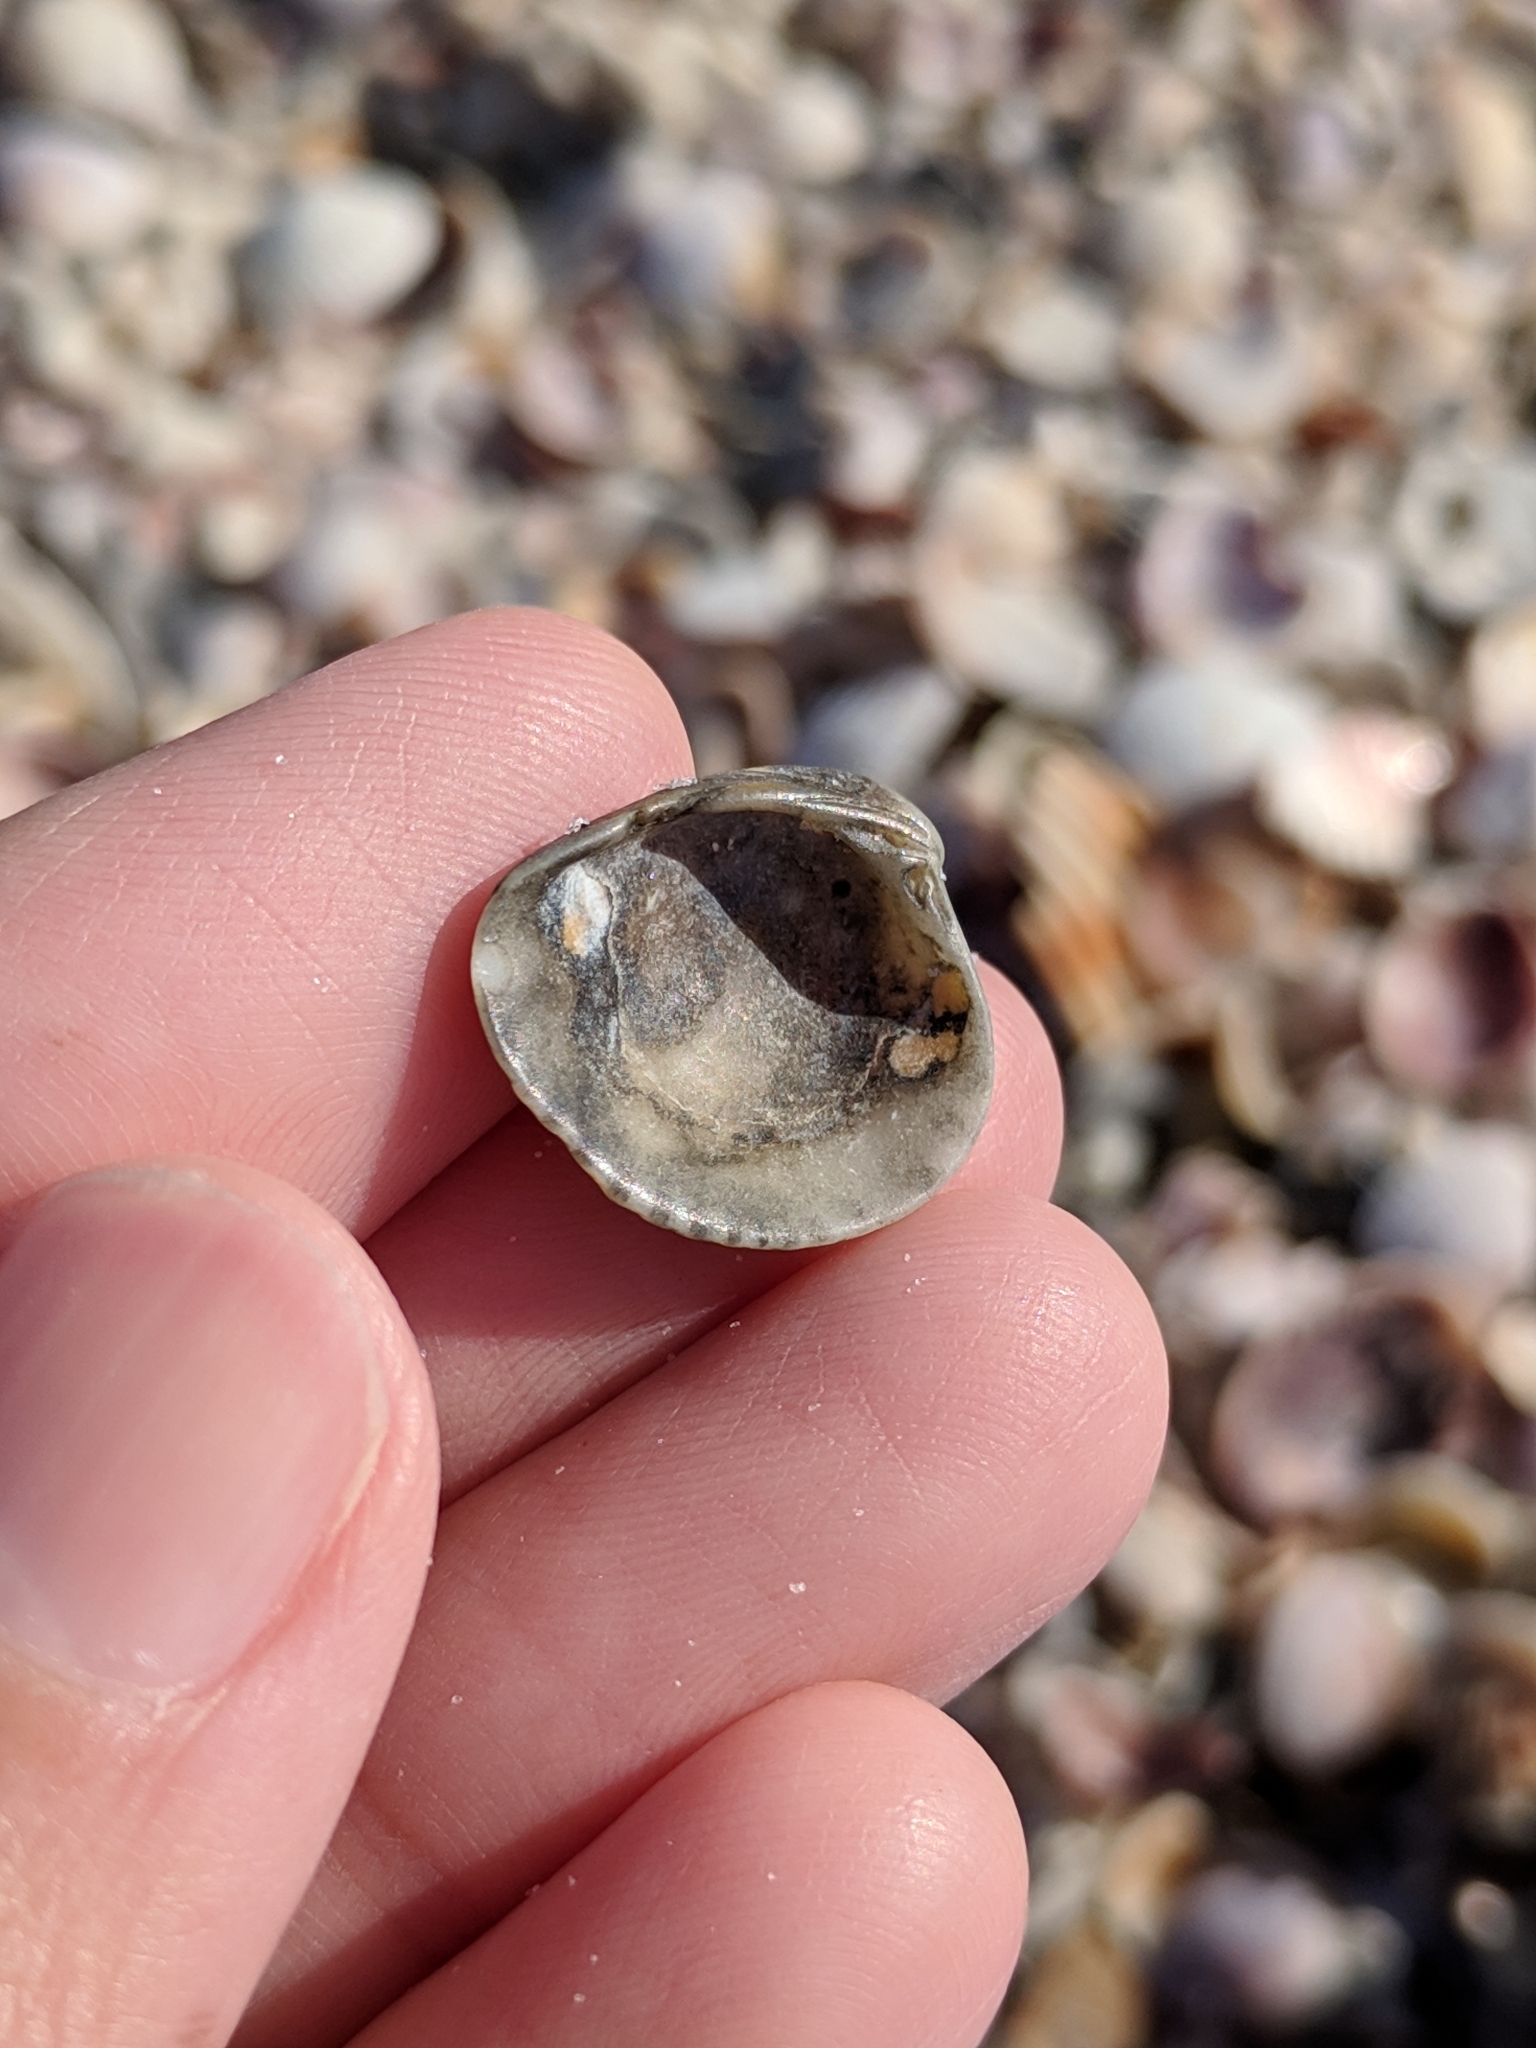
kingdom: Animalia
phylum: Mollusca
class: Bivalvia
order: Venerida
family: Veneridae
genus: Chione
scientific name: Chione elevata
